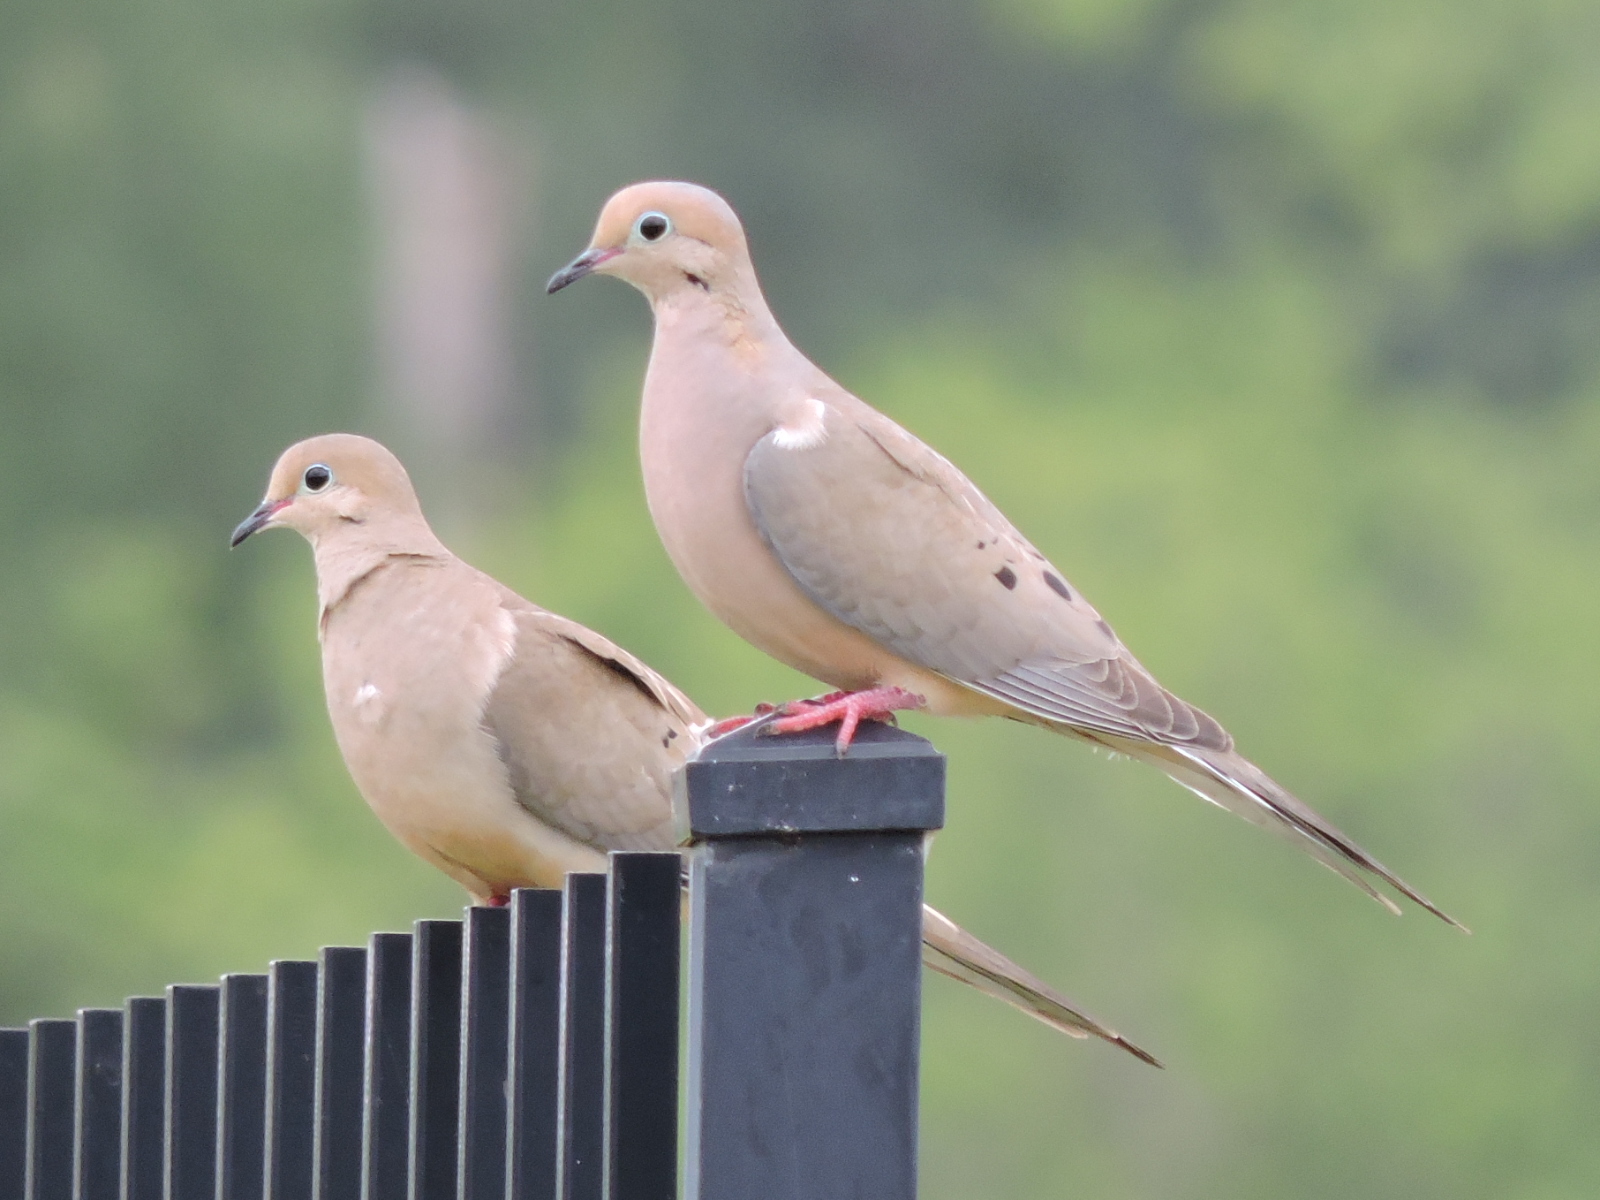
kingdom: Animalia
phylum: Chordata
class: Aves
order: Columbiformes
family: Columbidae
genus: Zenaida
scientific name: Zenaida macroura
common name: Mourning dove
